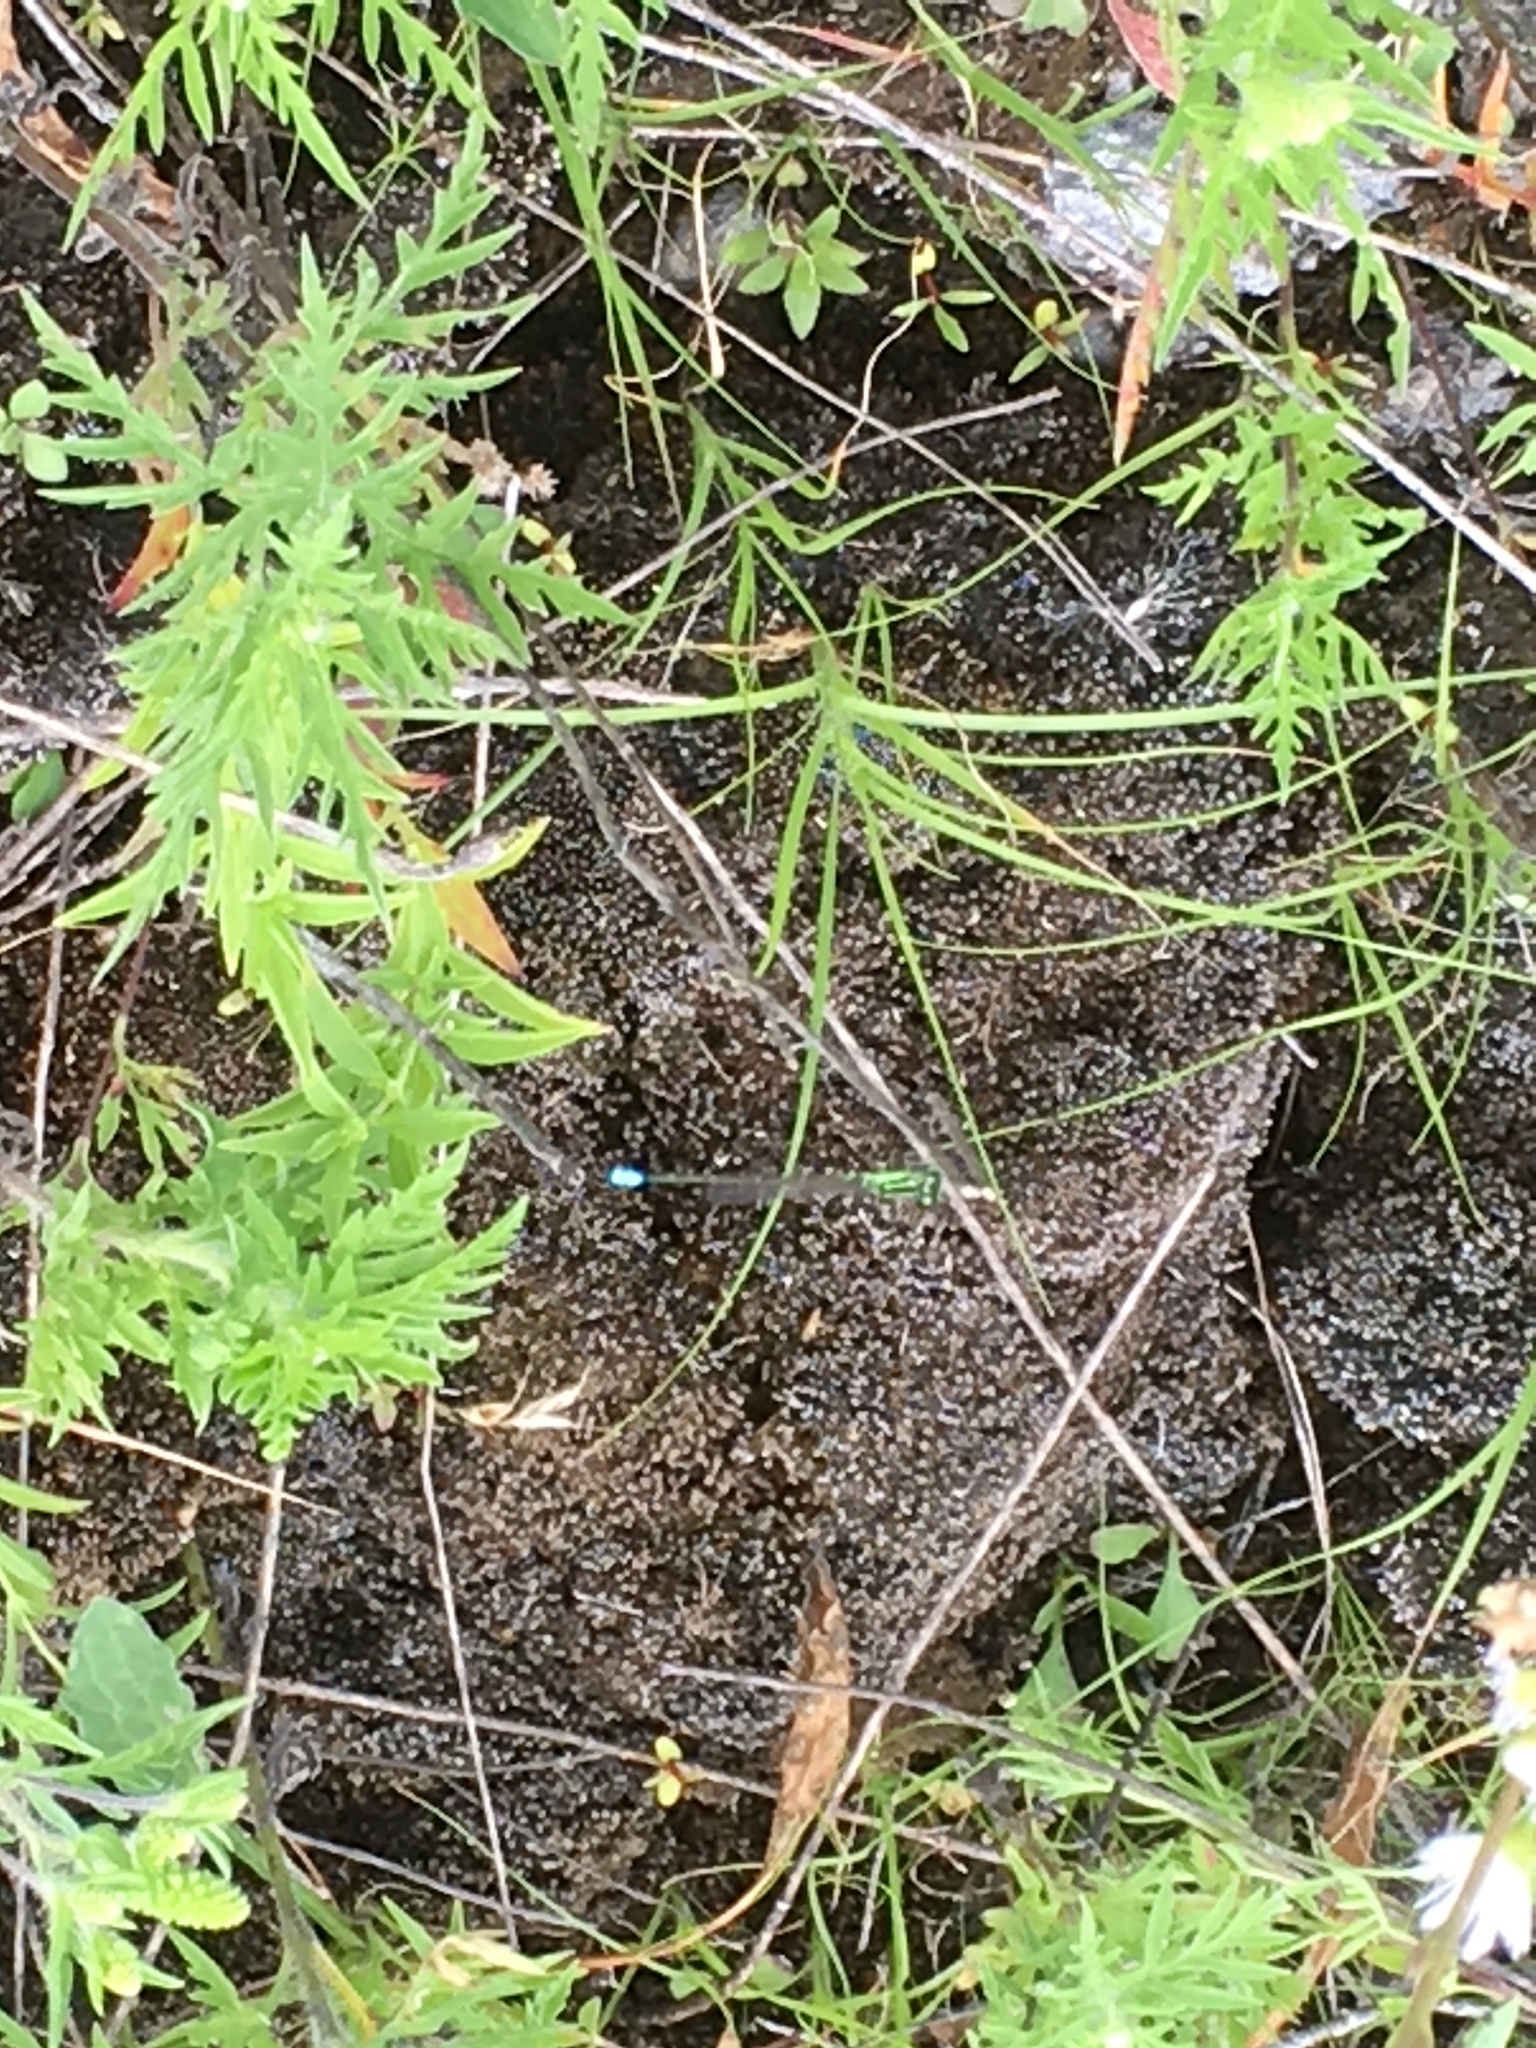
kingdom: Animalia
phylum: Arthropoda
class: Insecta
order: Odonata
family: Coenagrionidae
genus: Ischnura
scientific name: Ischnura verticalis
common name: Eastern forktail
